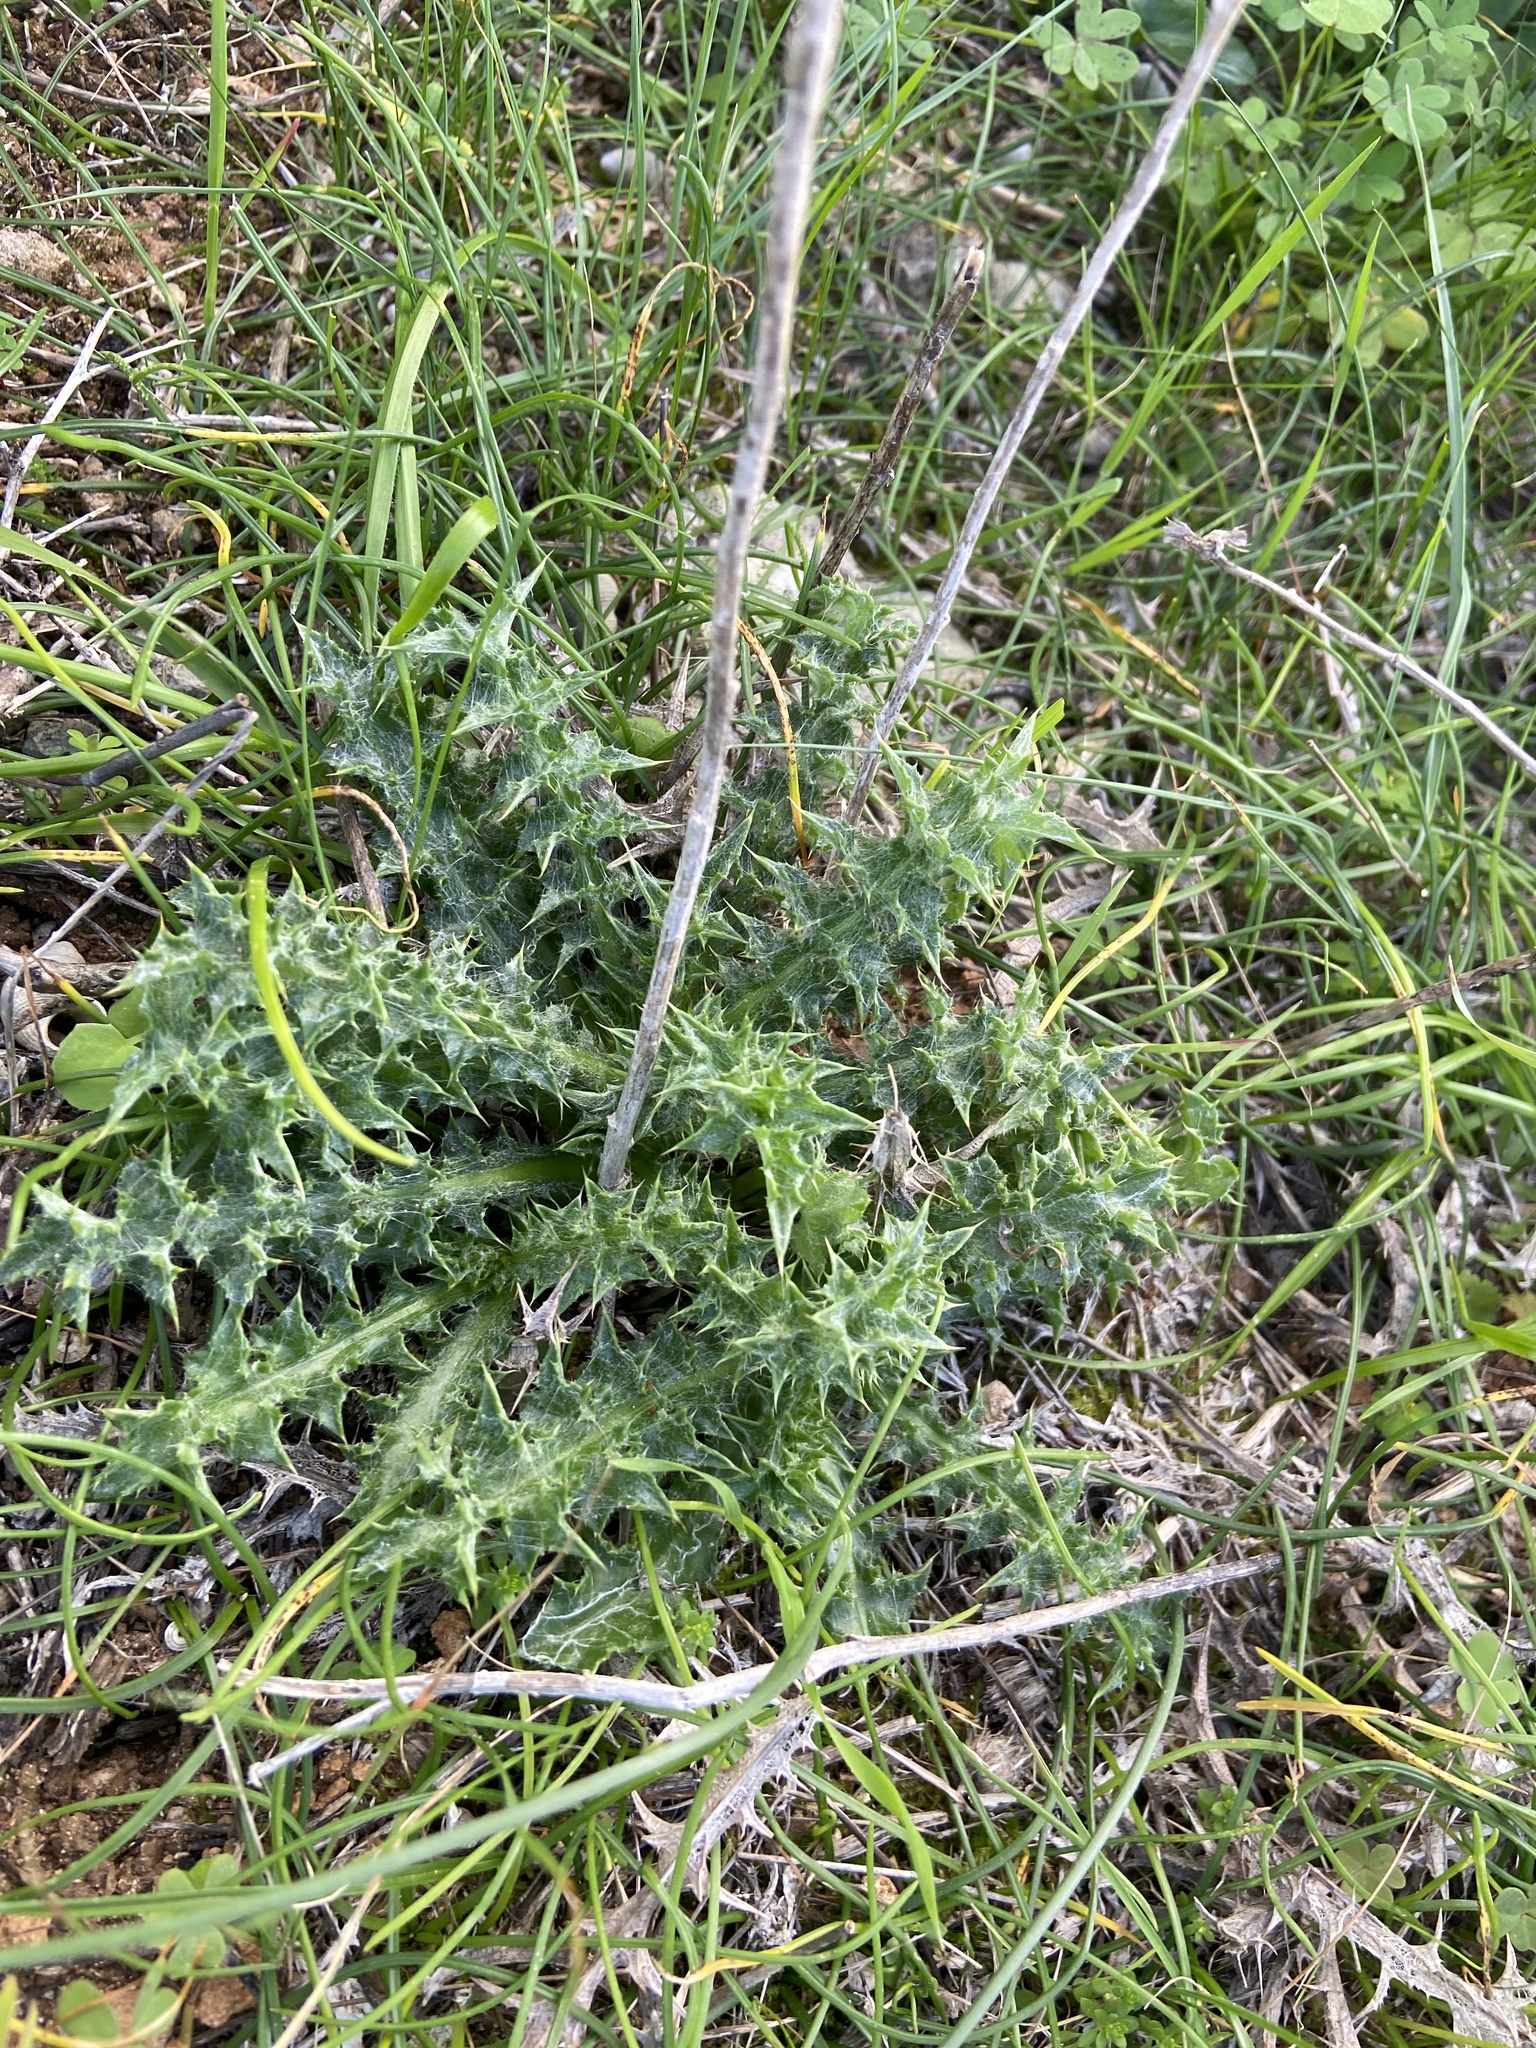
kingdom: Plantae
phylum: Tracheophyta
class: Magnoliopsida
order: Asterales
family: Asteraceae
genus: Carduus
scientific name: Carduus pycnocephalus
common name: Plymouth thistle
